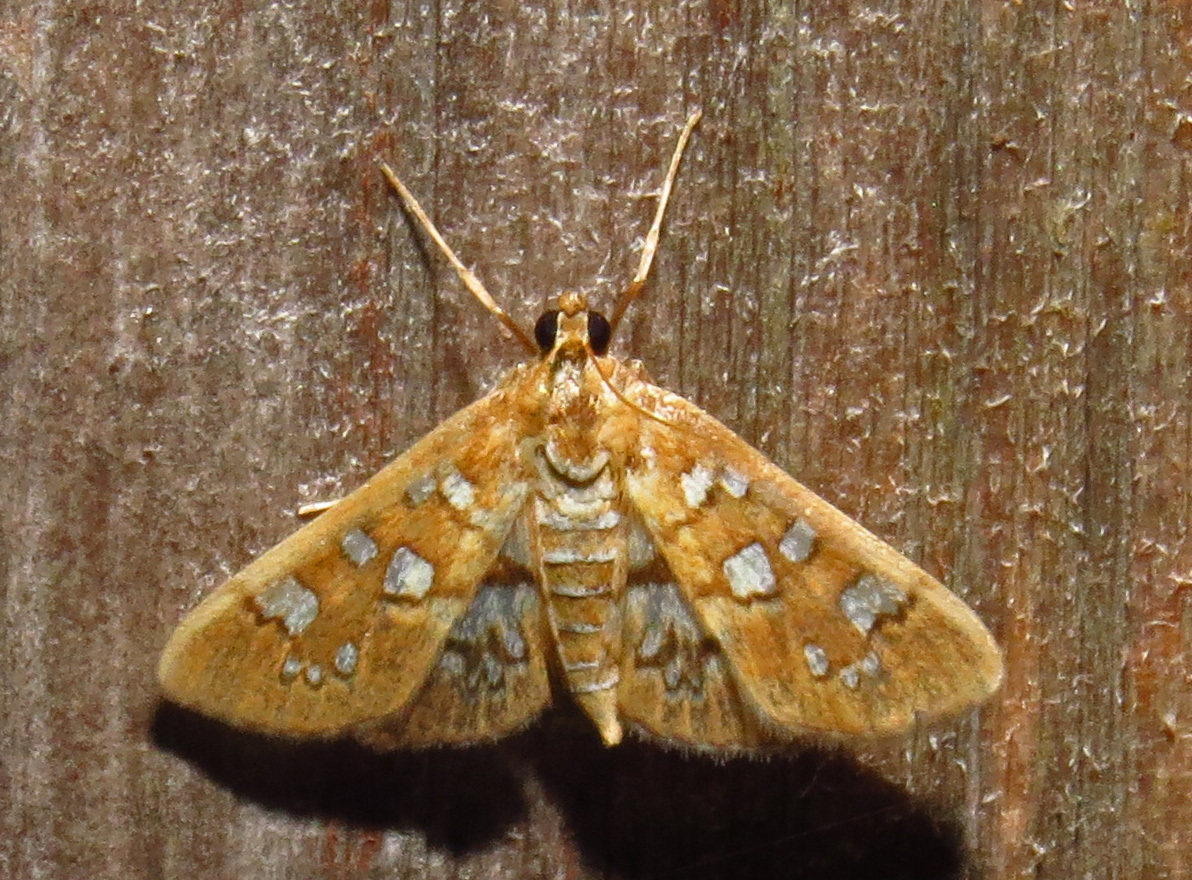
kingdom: Animalia
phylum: Arthropoda
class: Insecta
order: Lepidoptera
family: Crambidae
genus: Samea
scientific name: Samea baccatalis
